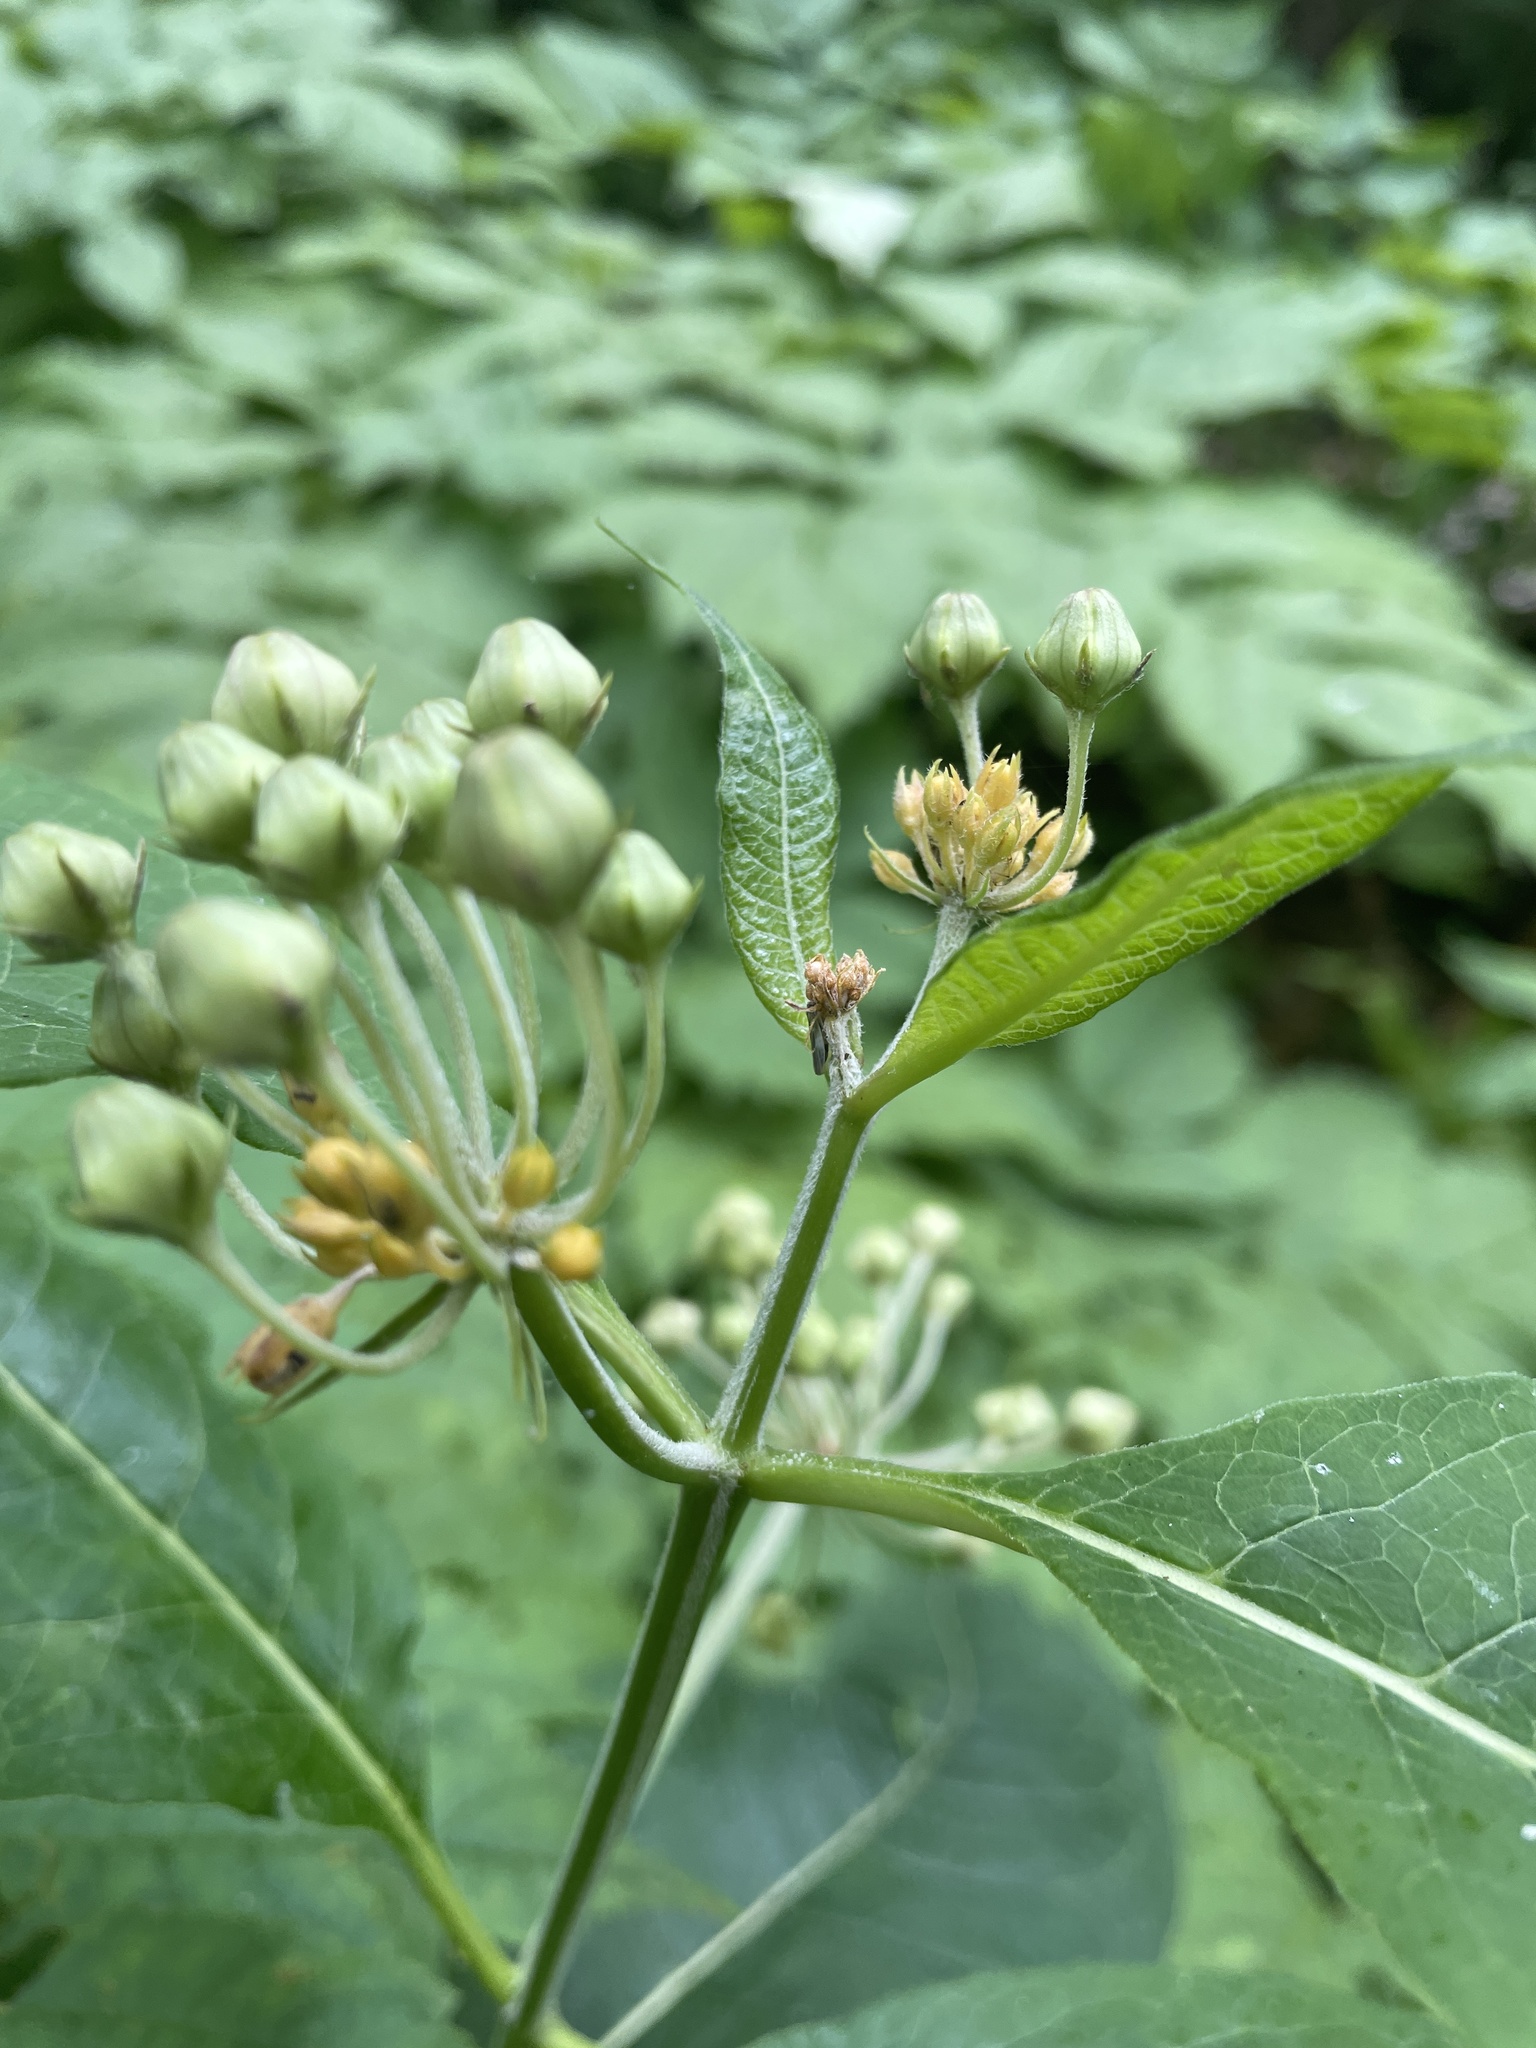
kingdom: Plantae
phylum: Tracheophyta
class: Magnoliopsida
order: Gentianales
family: Apocynaceae
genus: Asclepias
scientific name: Asclepias exaltata
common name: Poke milkweed
